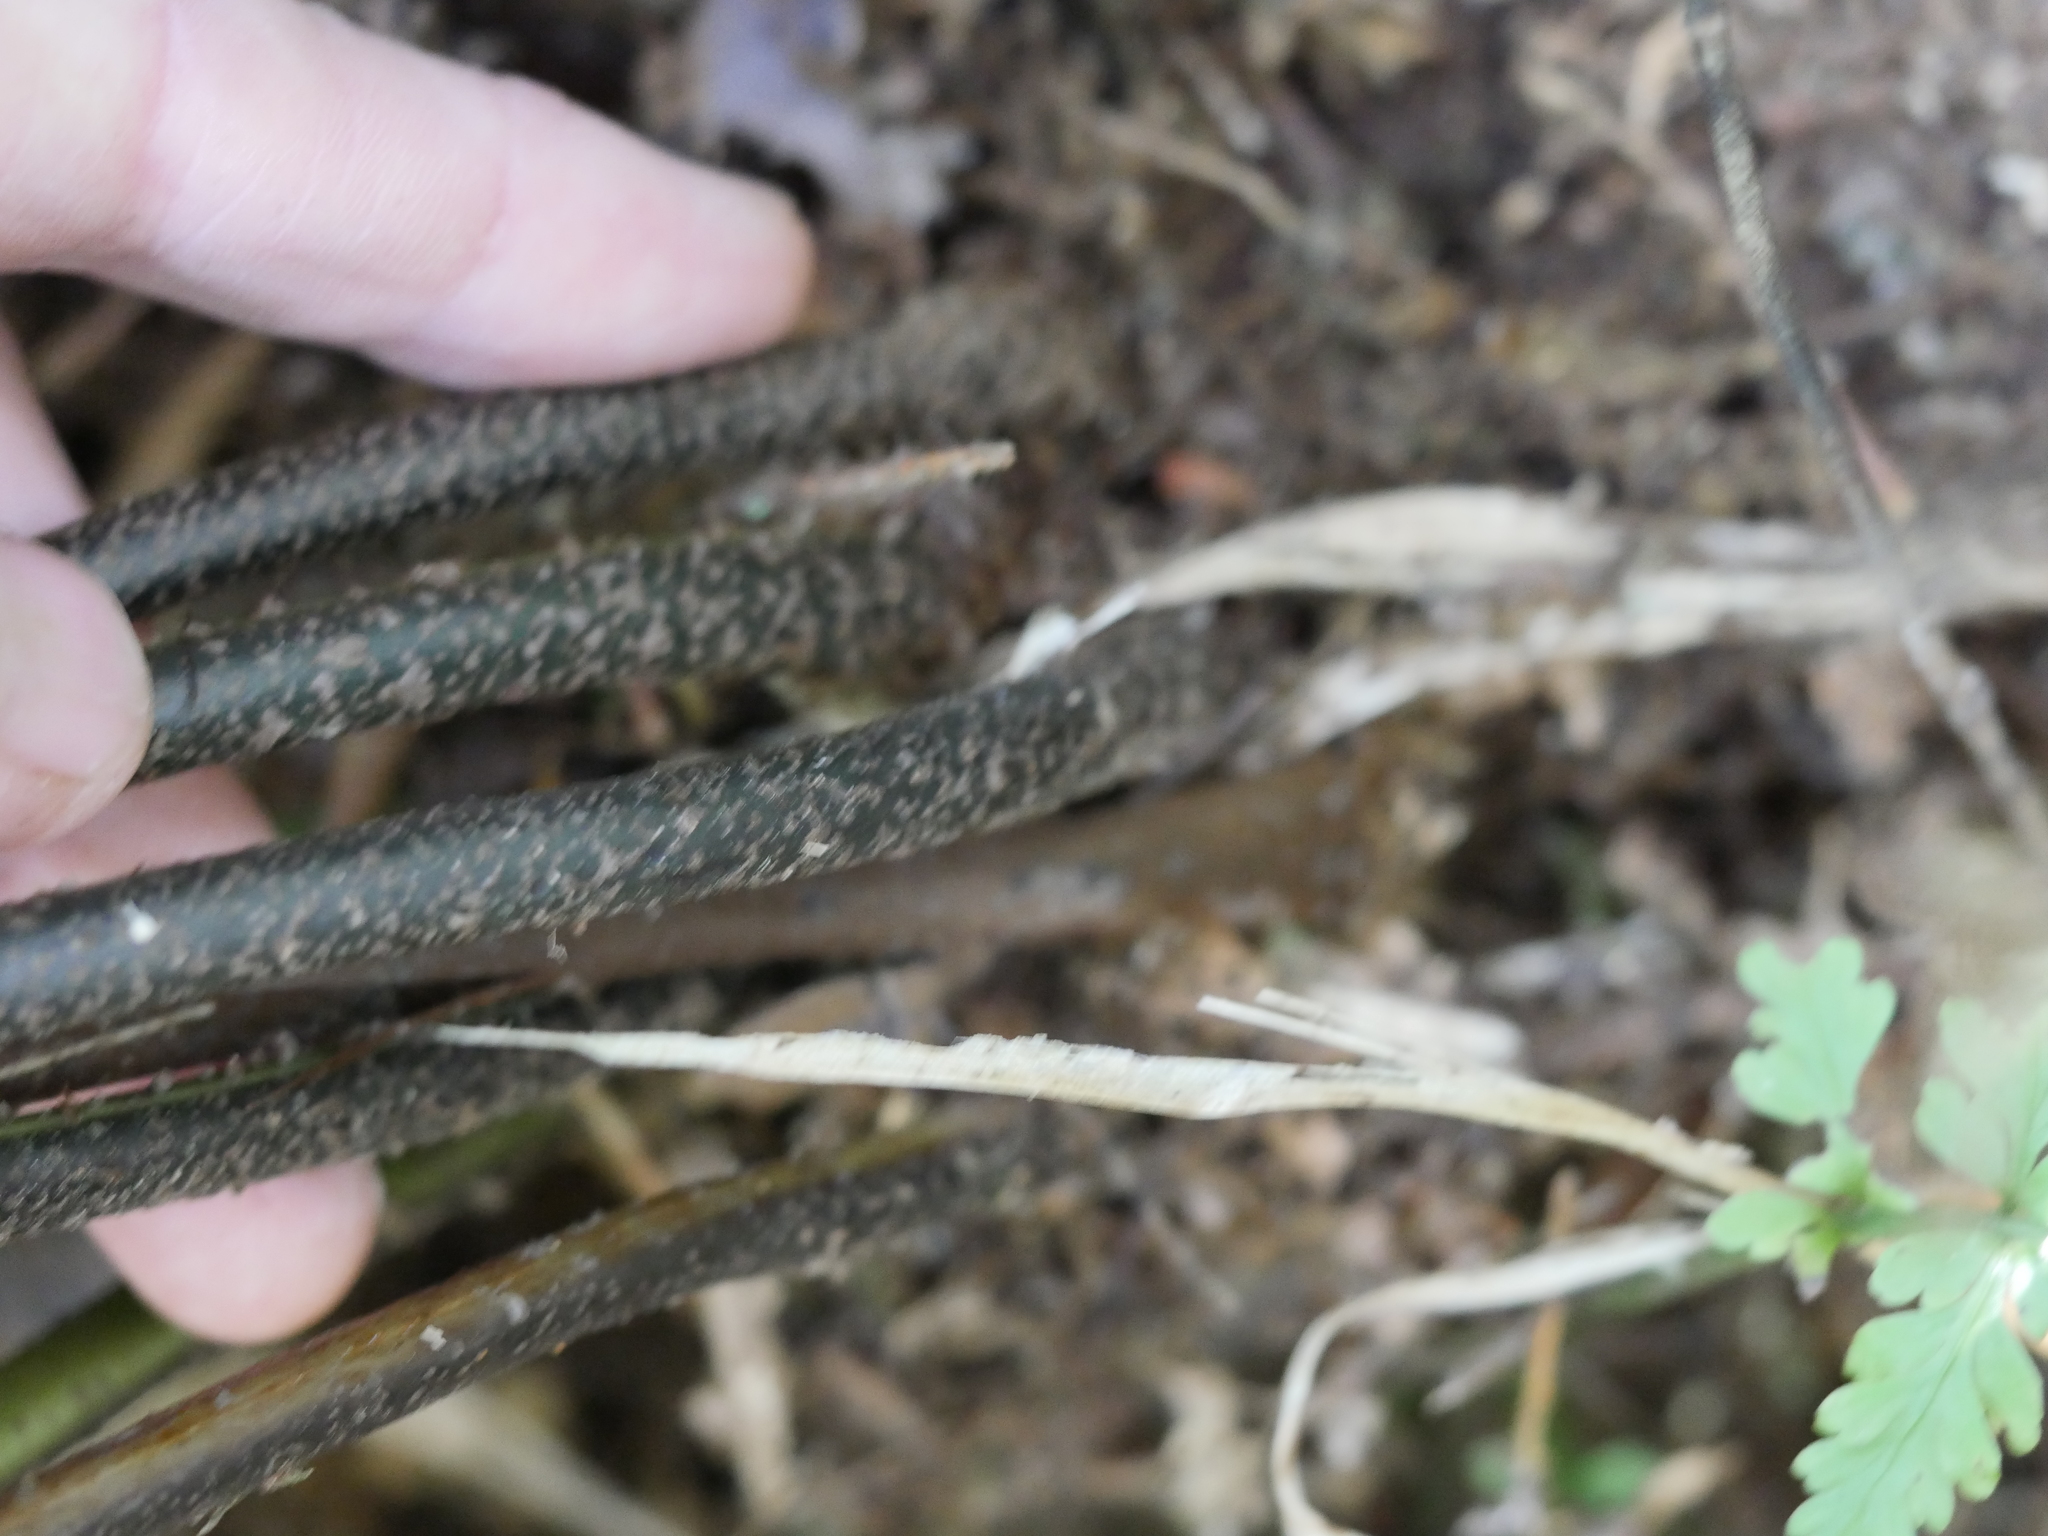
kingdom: Plantae
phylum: Tracheophyta
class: Polypodiopsida
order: Polypodiales
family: Aspleniaceae
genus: Asplenium
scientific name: Asplenium bulbiferum
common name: Mother fern
